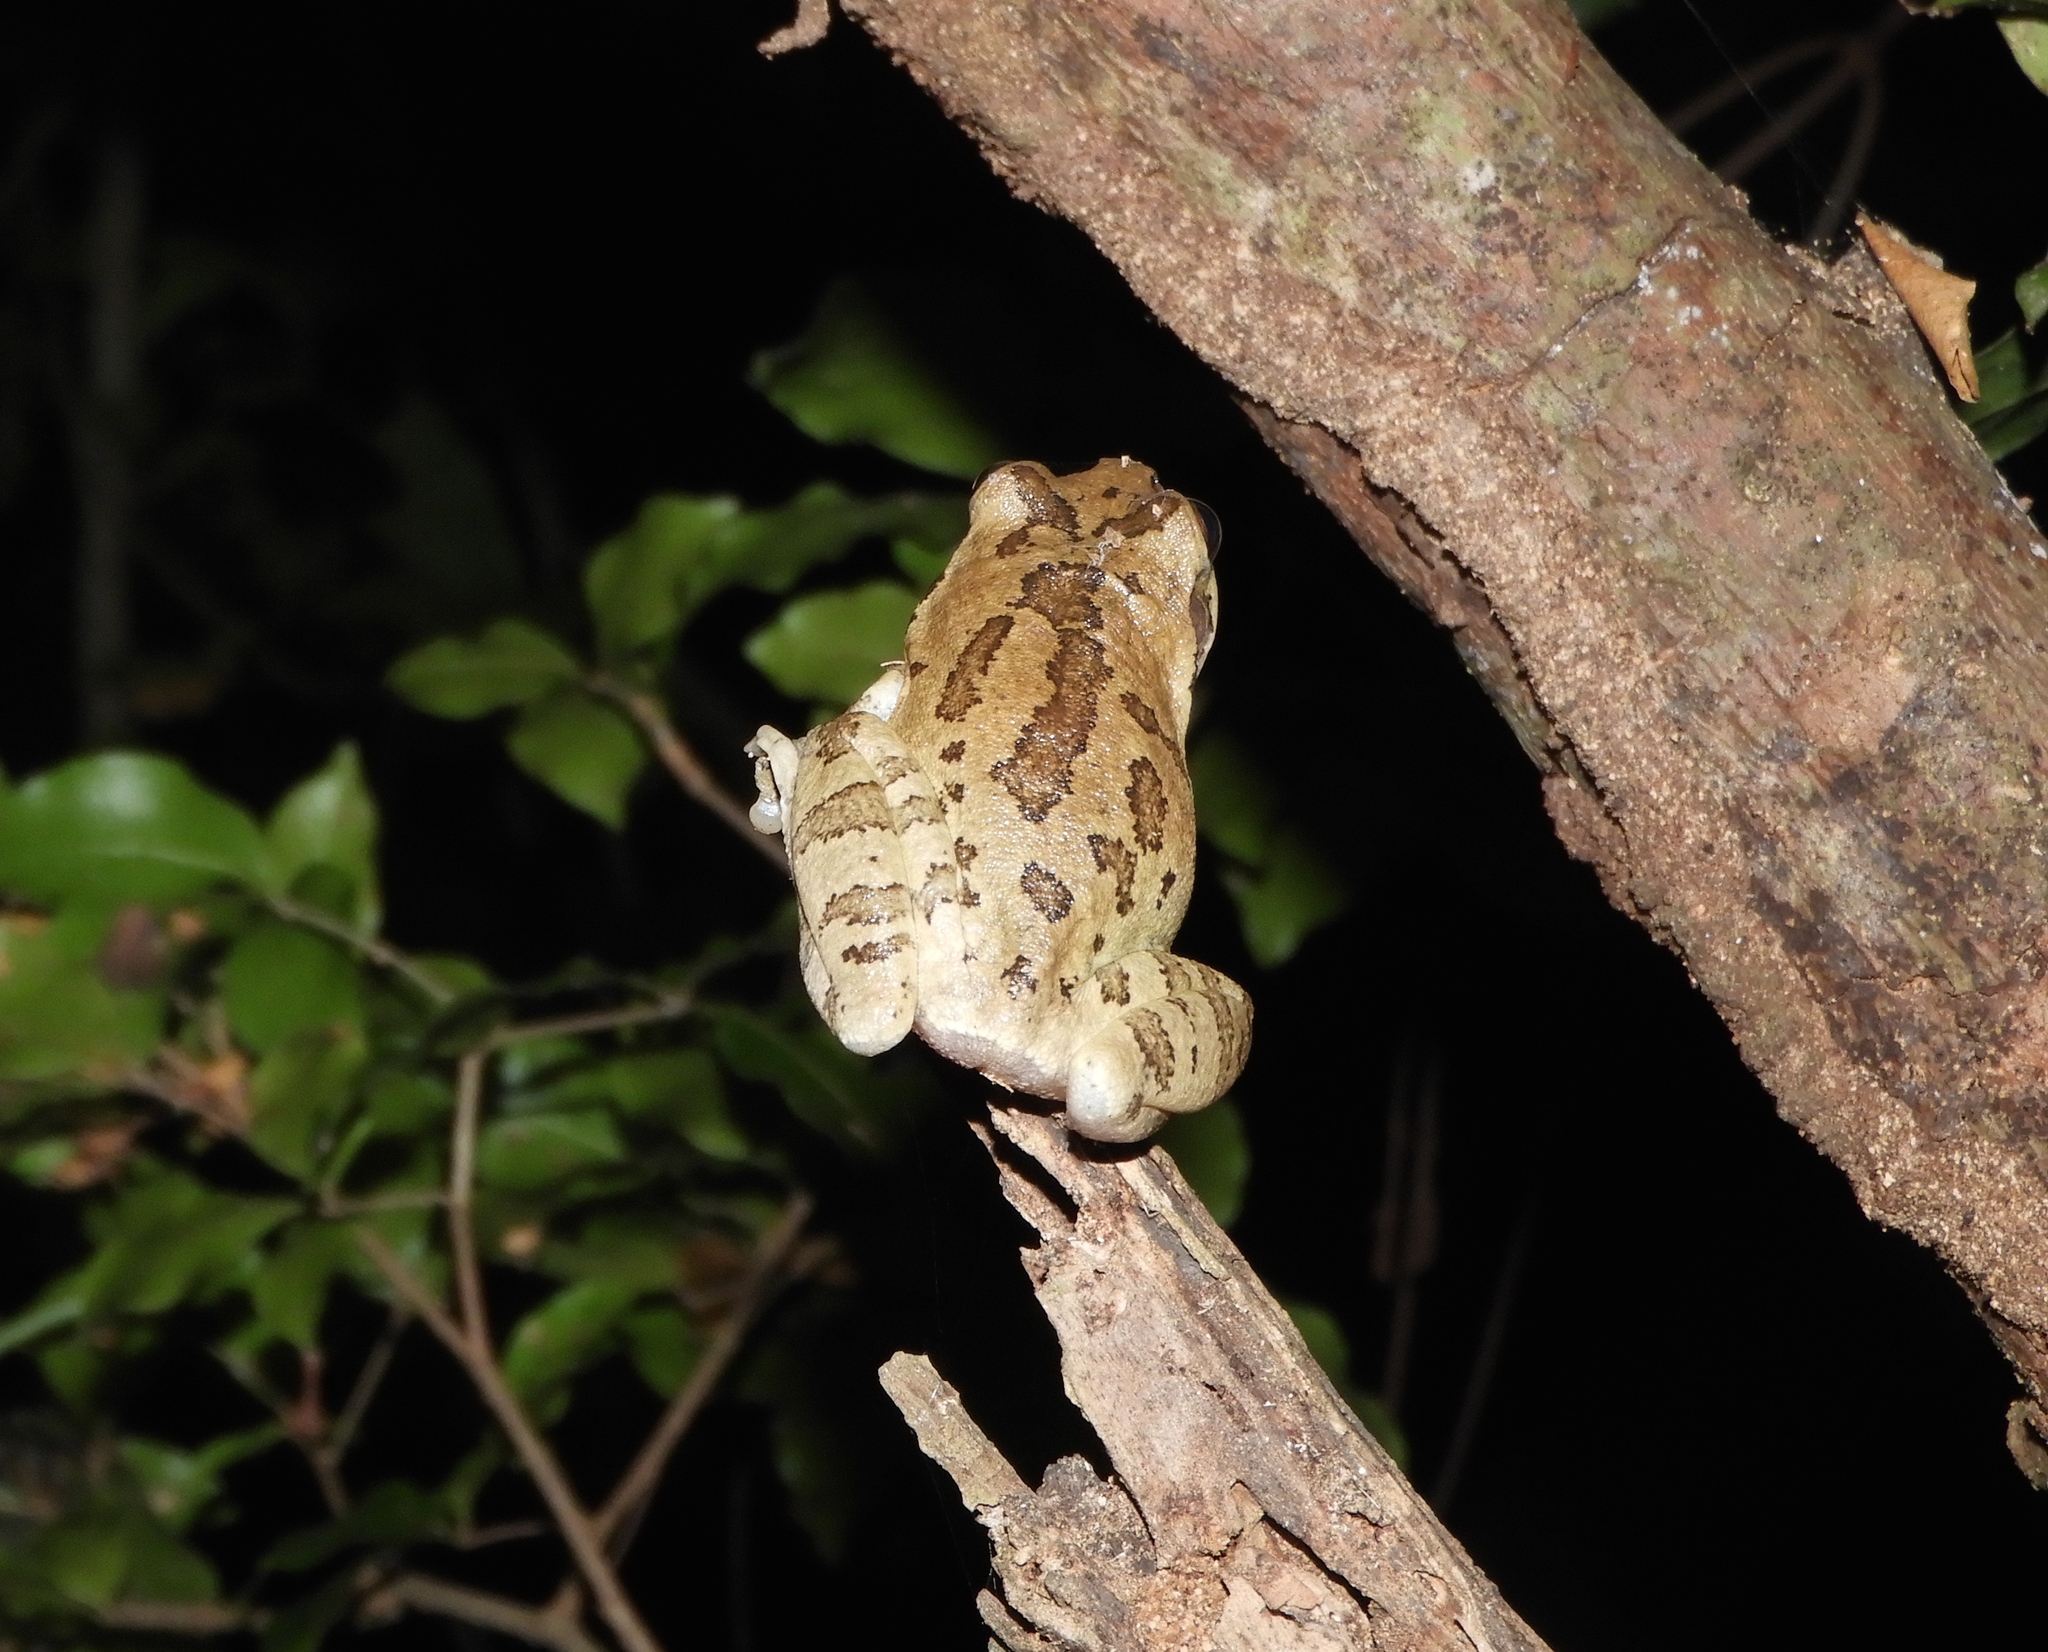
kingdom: Animalia
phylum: Chordata
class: Amphibia
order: Anura
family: Hylidae
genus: Smilisca
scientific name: Smilisca baudinii
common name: Mexican smilisca
